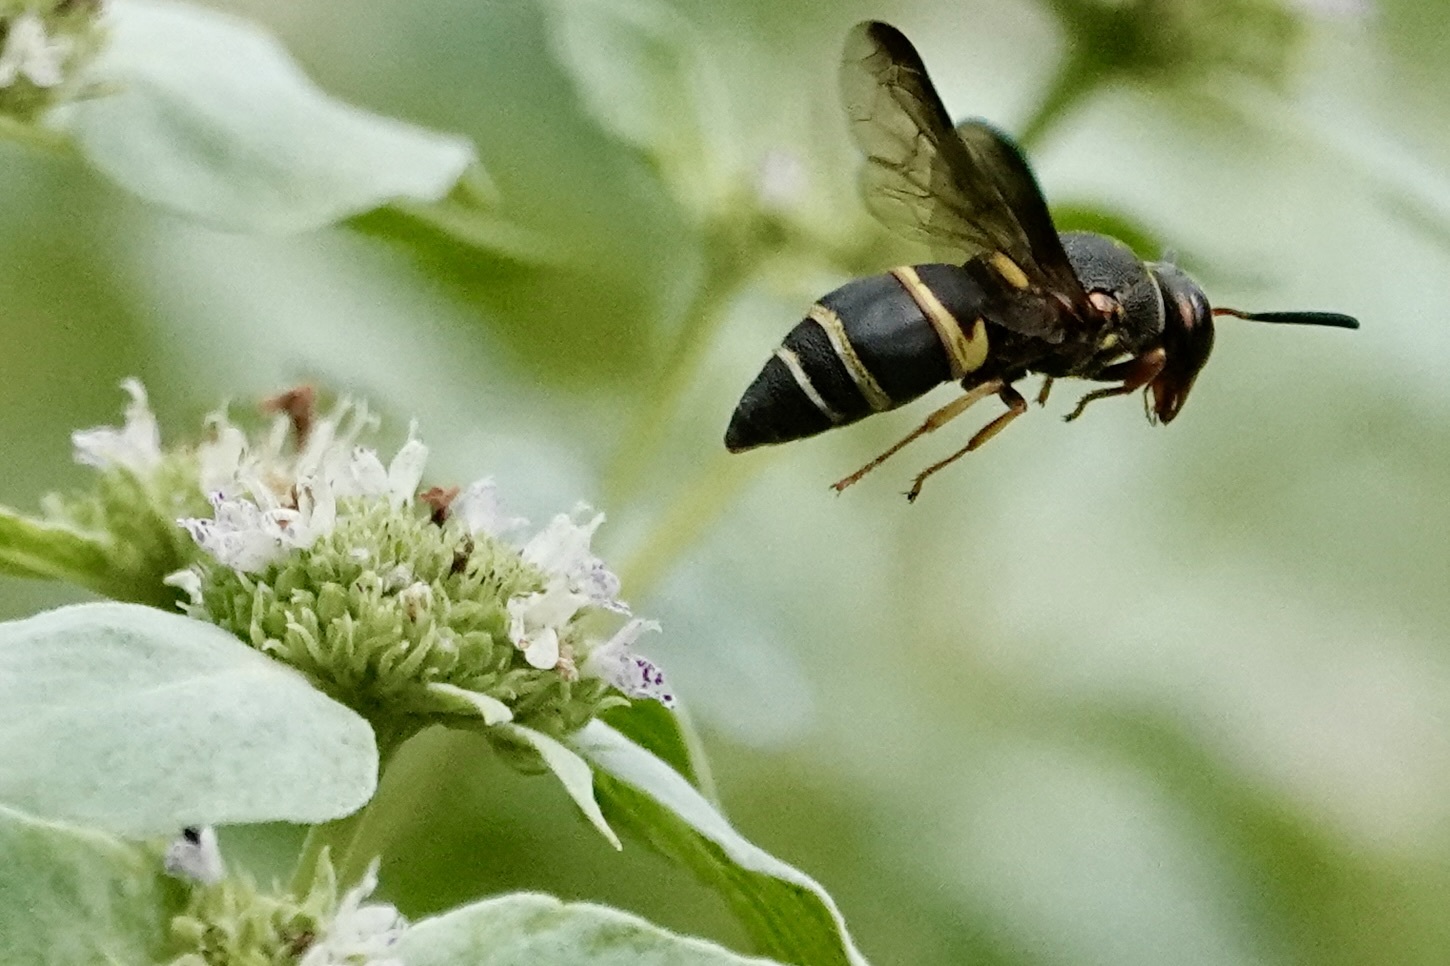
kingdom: Animalia
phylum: Arthropoda
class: Insecta
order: Hymenoptera
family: Eumenidae
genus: Euodynerus
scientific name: Euodynerus hidalgo
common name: Wasp
